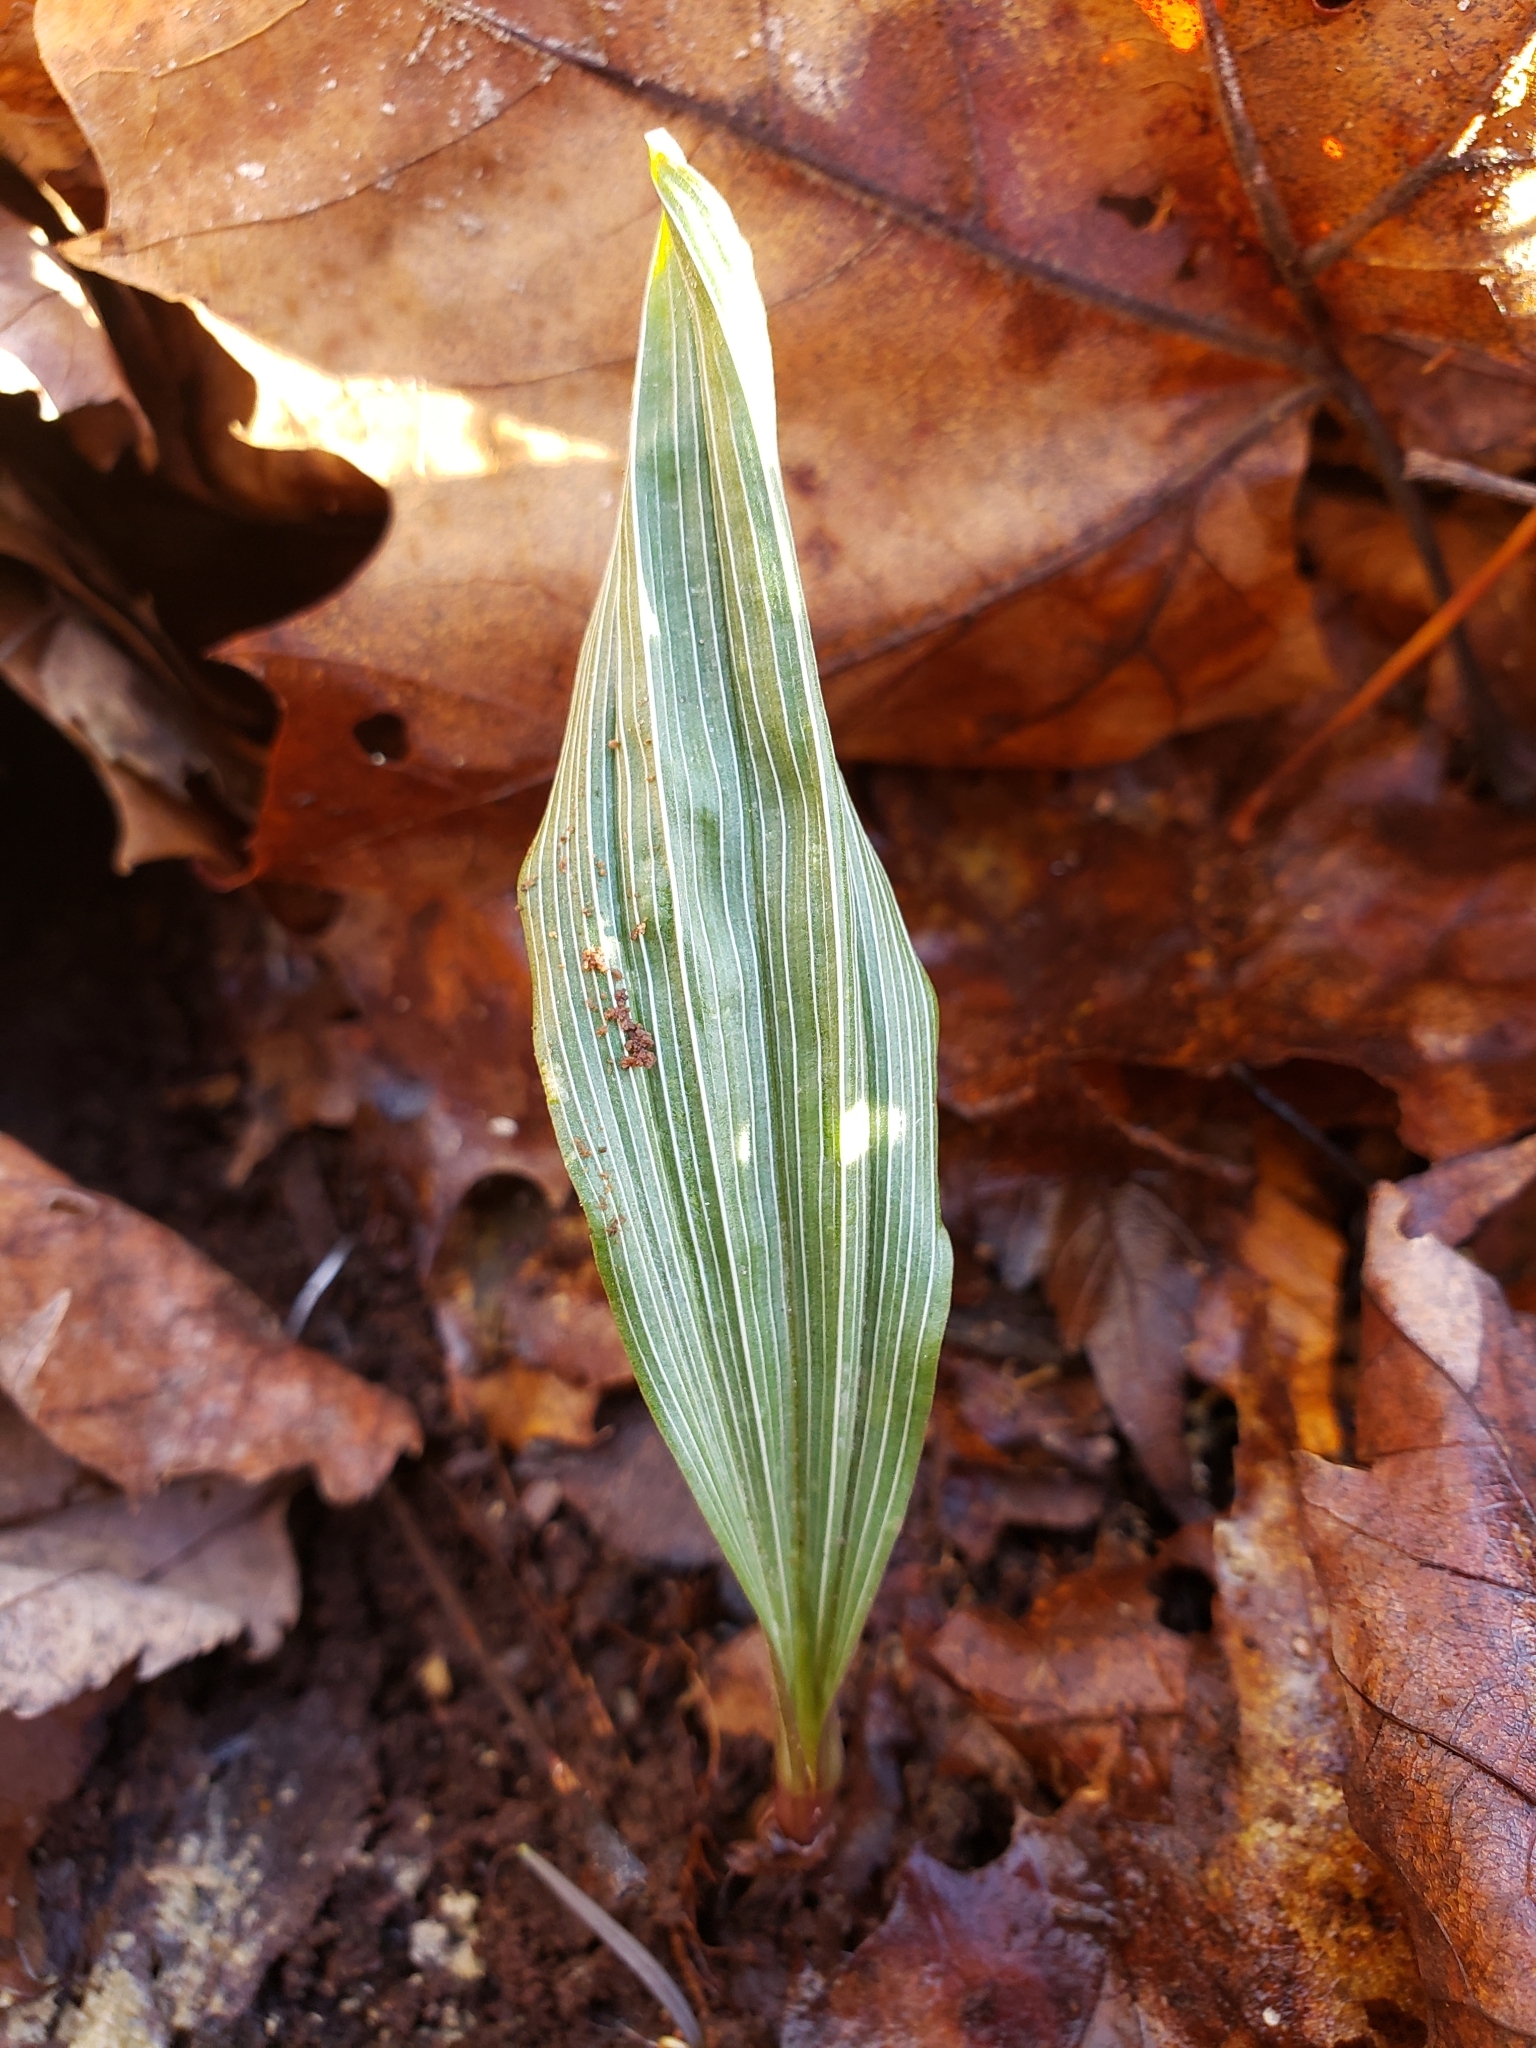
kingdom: Plantae
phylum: Tracheophyta
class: Liliopsida
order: Asparagales
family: Orchidaceae
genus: Aplectrum
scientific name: Aplectrum hyemale
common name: Adam-and-eve
